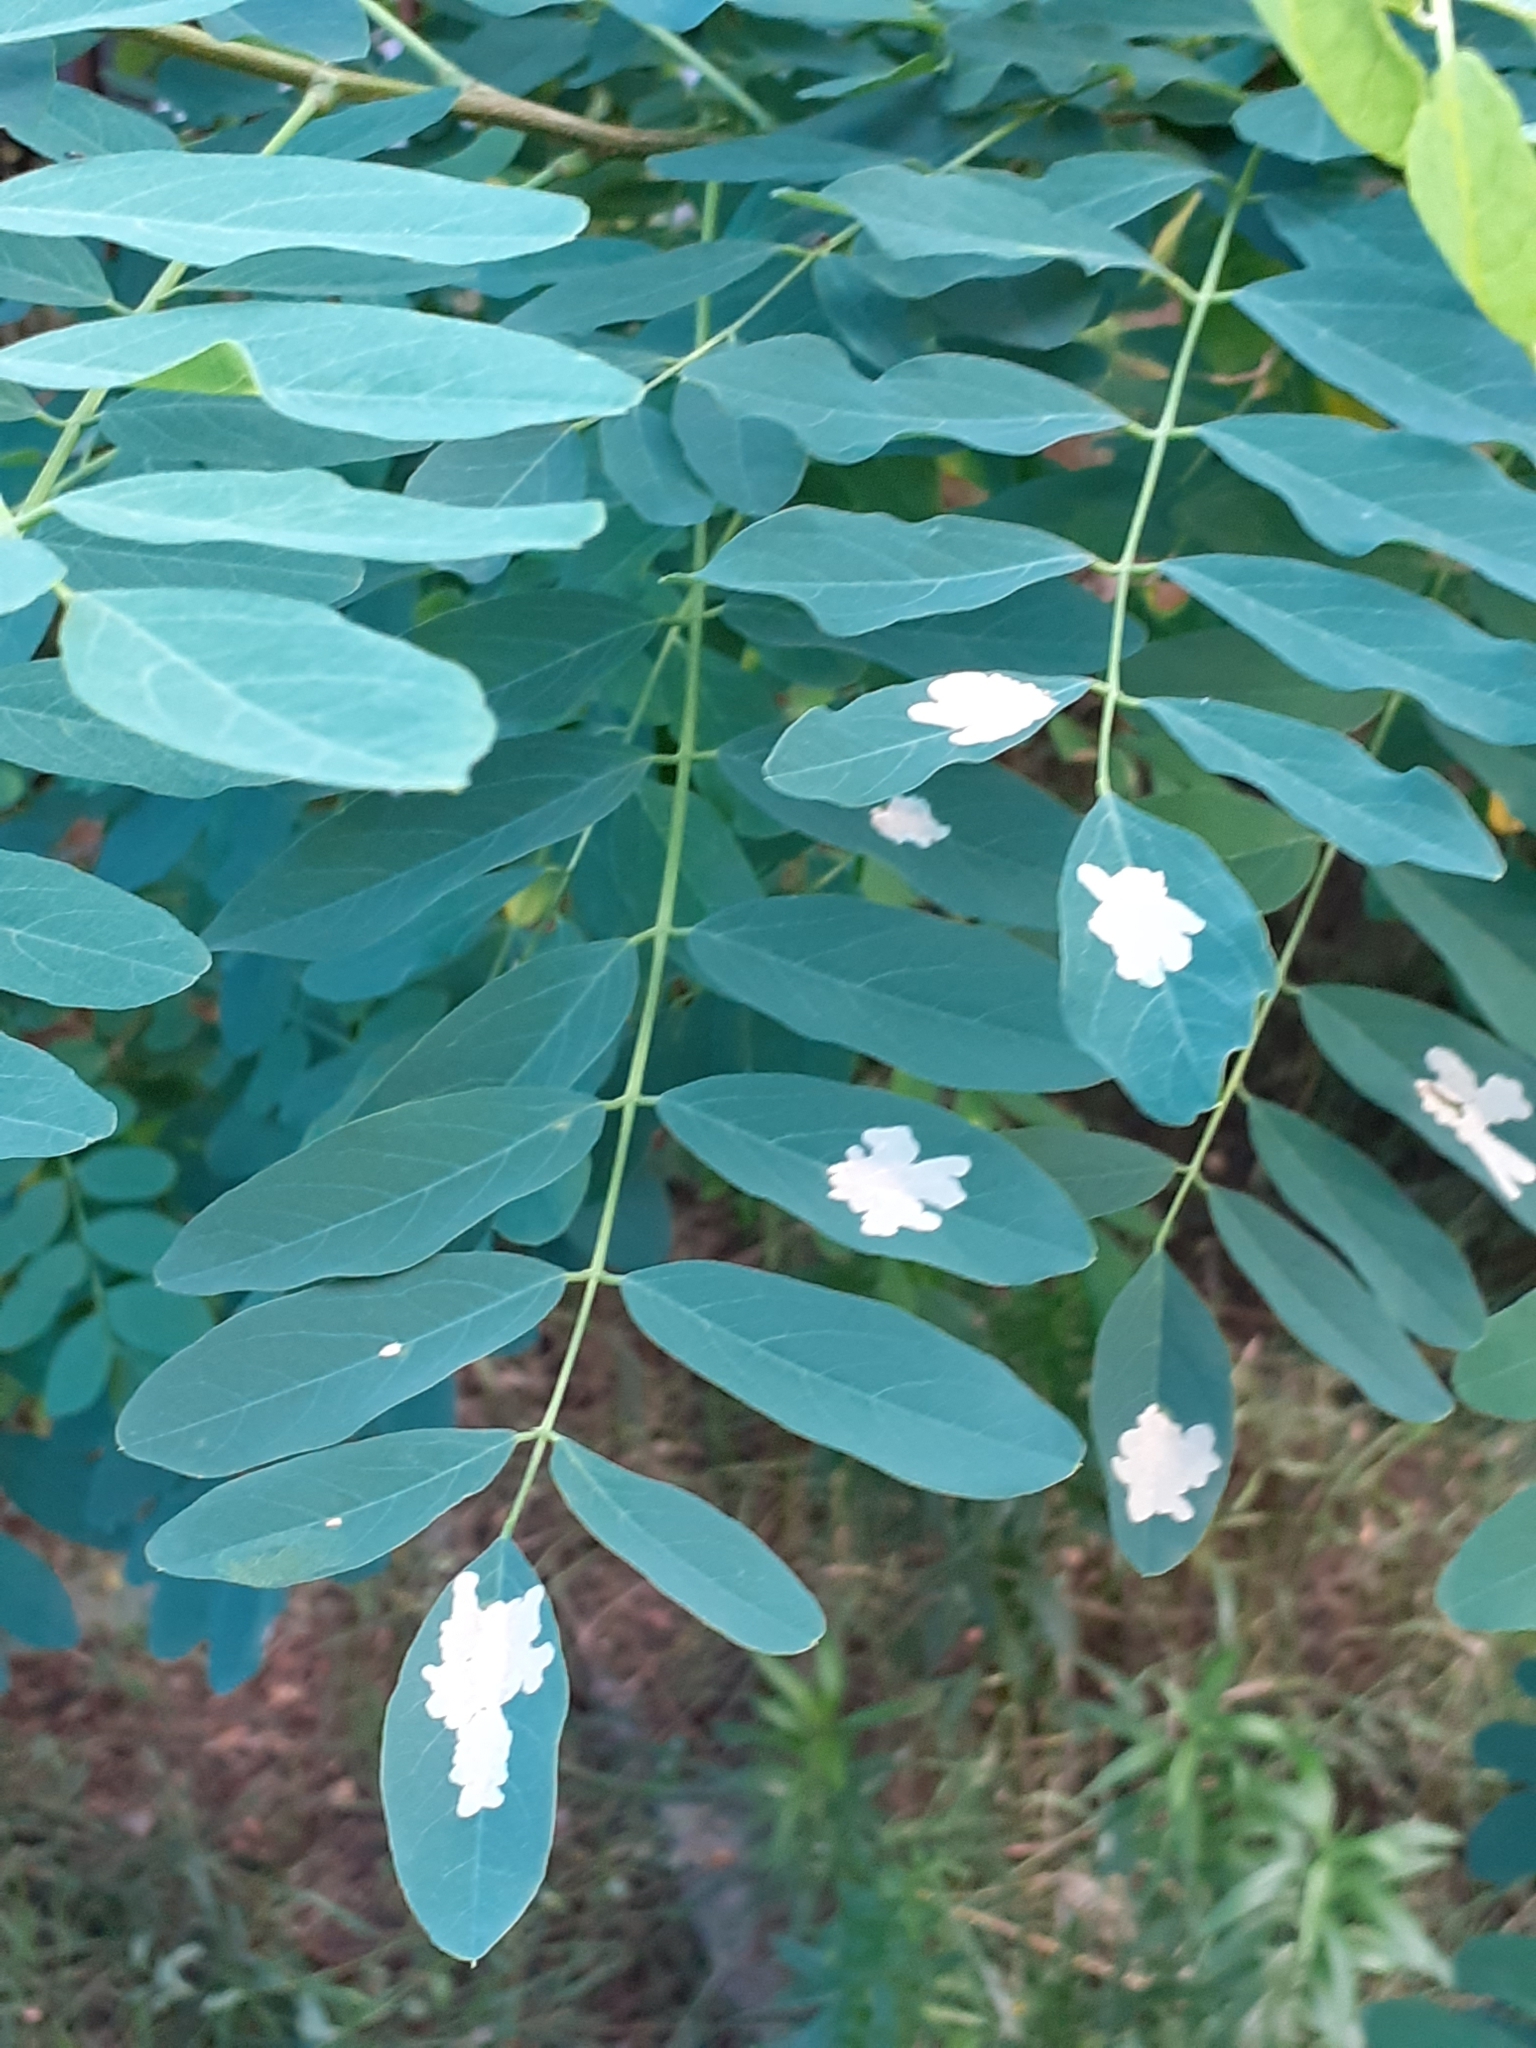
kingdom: Animalia
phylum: Arthropoda
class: Insecta
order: Lepidoptera
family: Gracillariidae
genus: Parectopa
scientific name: Parectopa robiniella
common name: Locust digitate leafminer
